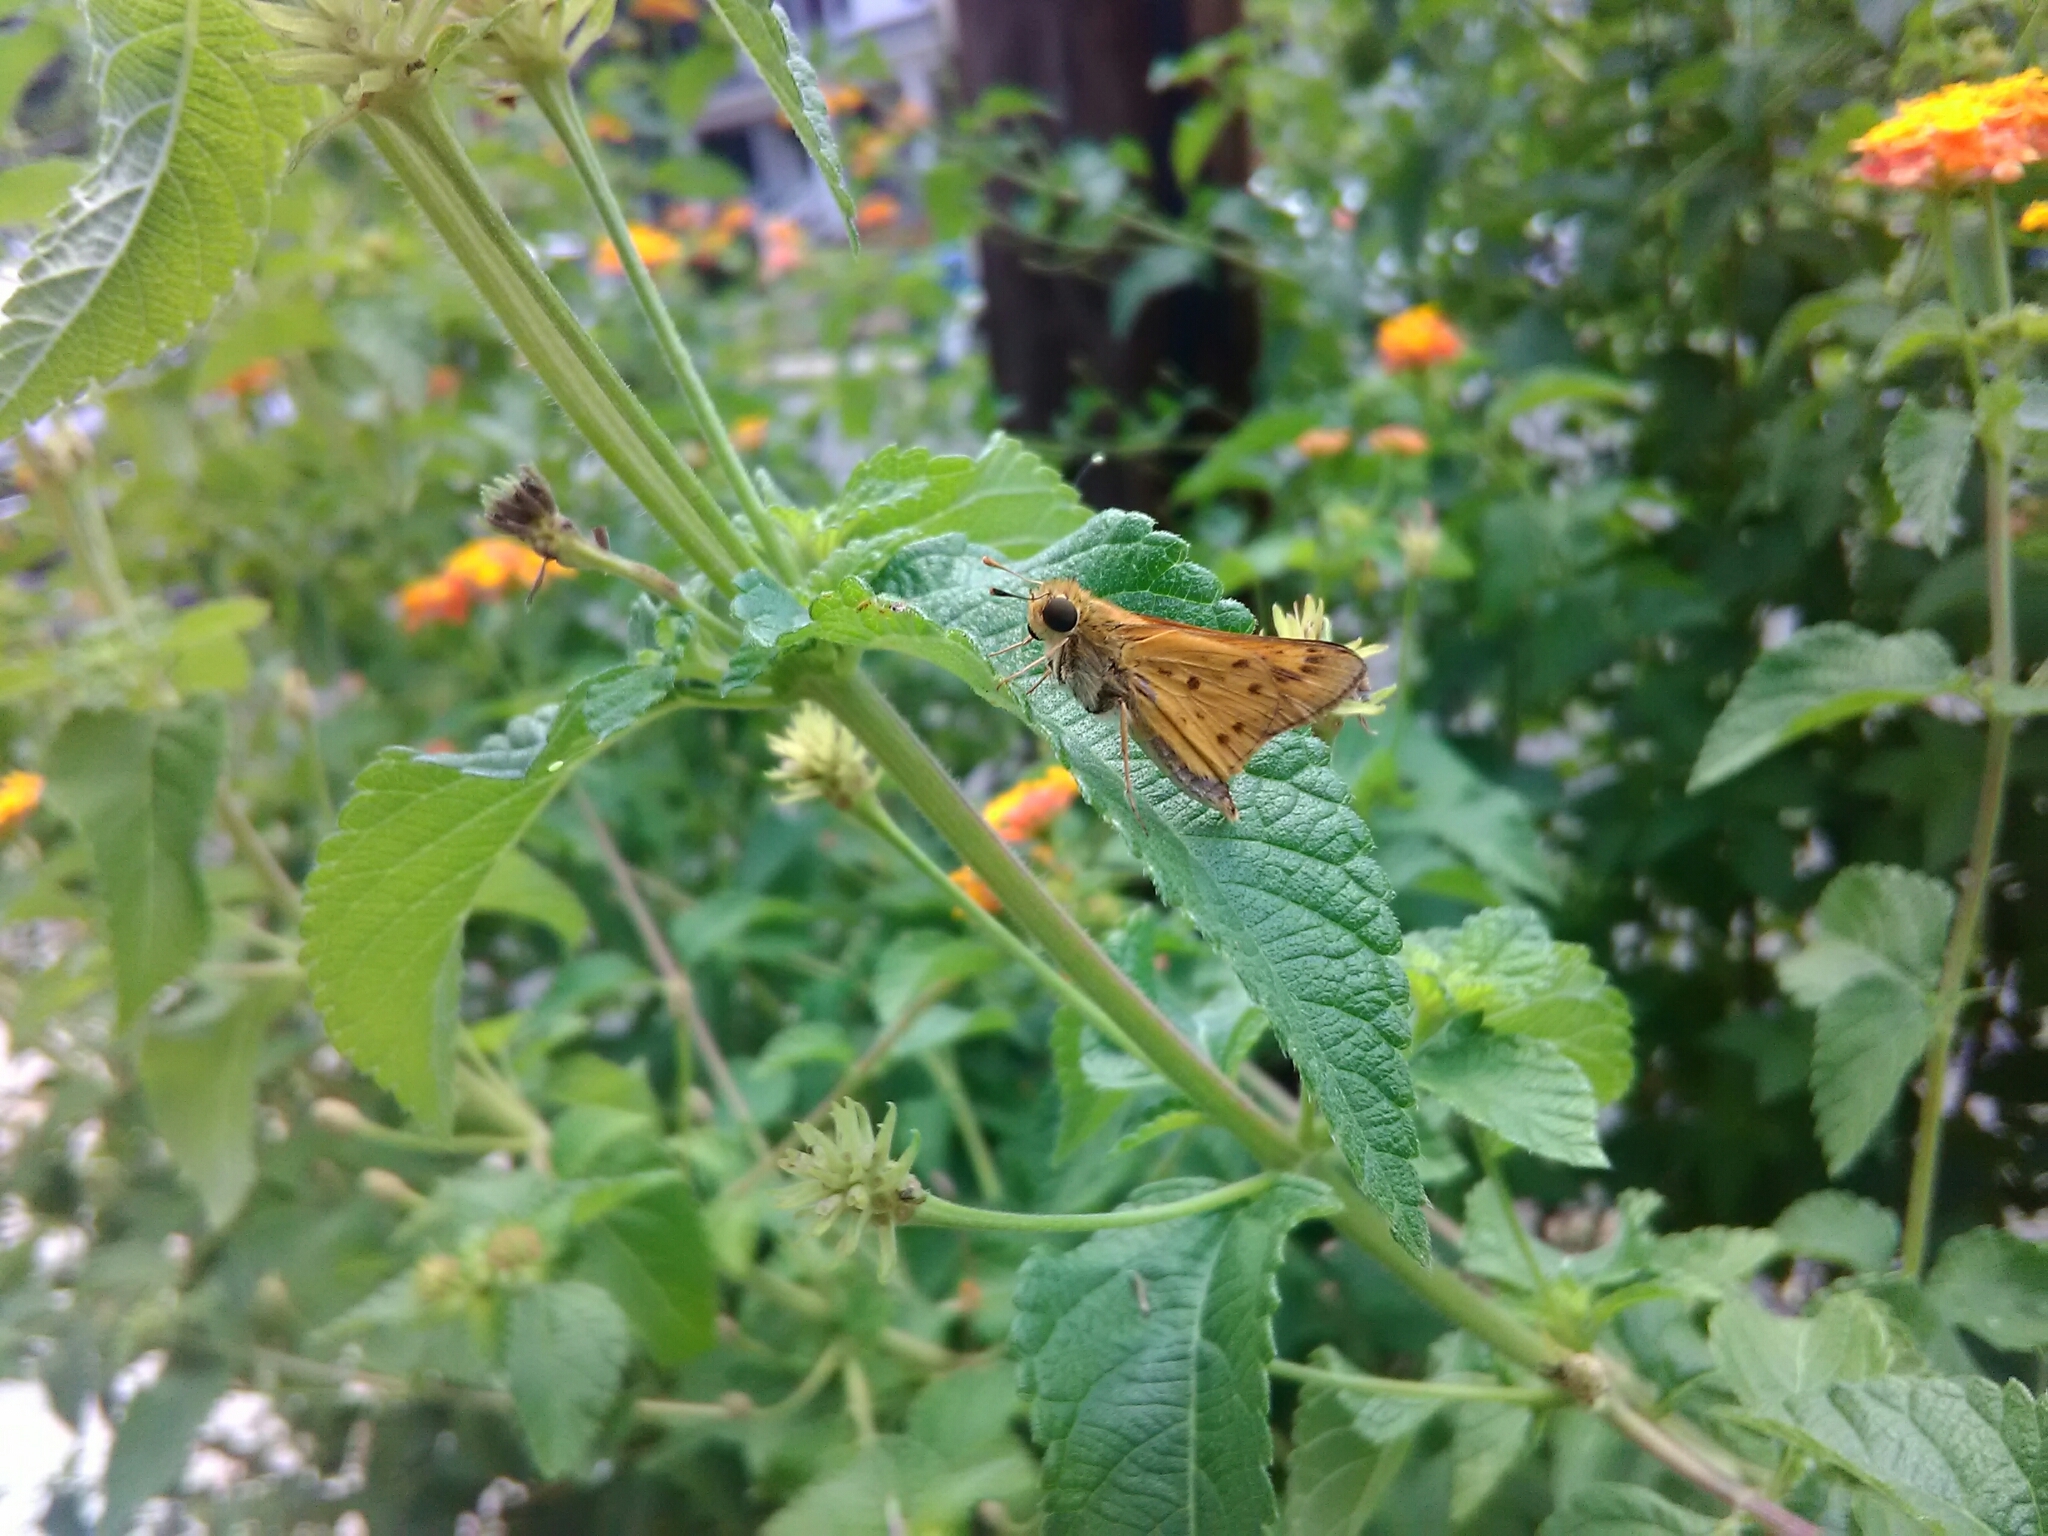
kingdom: Animalia
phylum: Arthropoda
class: Insecta
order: Lepidoptera
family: Hesperiidae
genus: Hylephila
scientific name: Hylephila phyleus
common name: Fiery skipper
